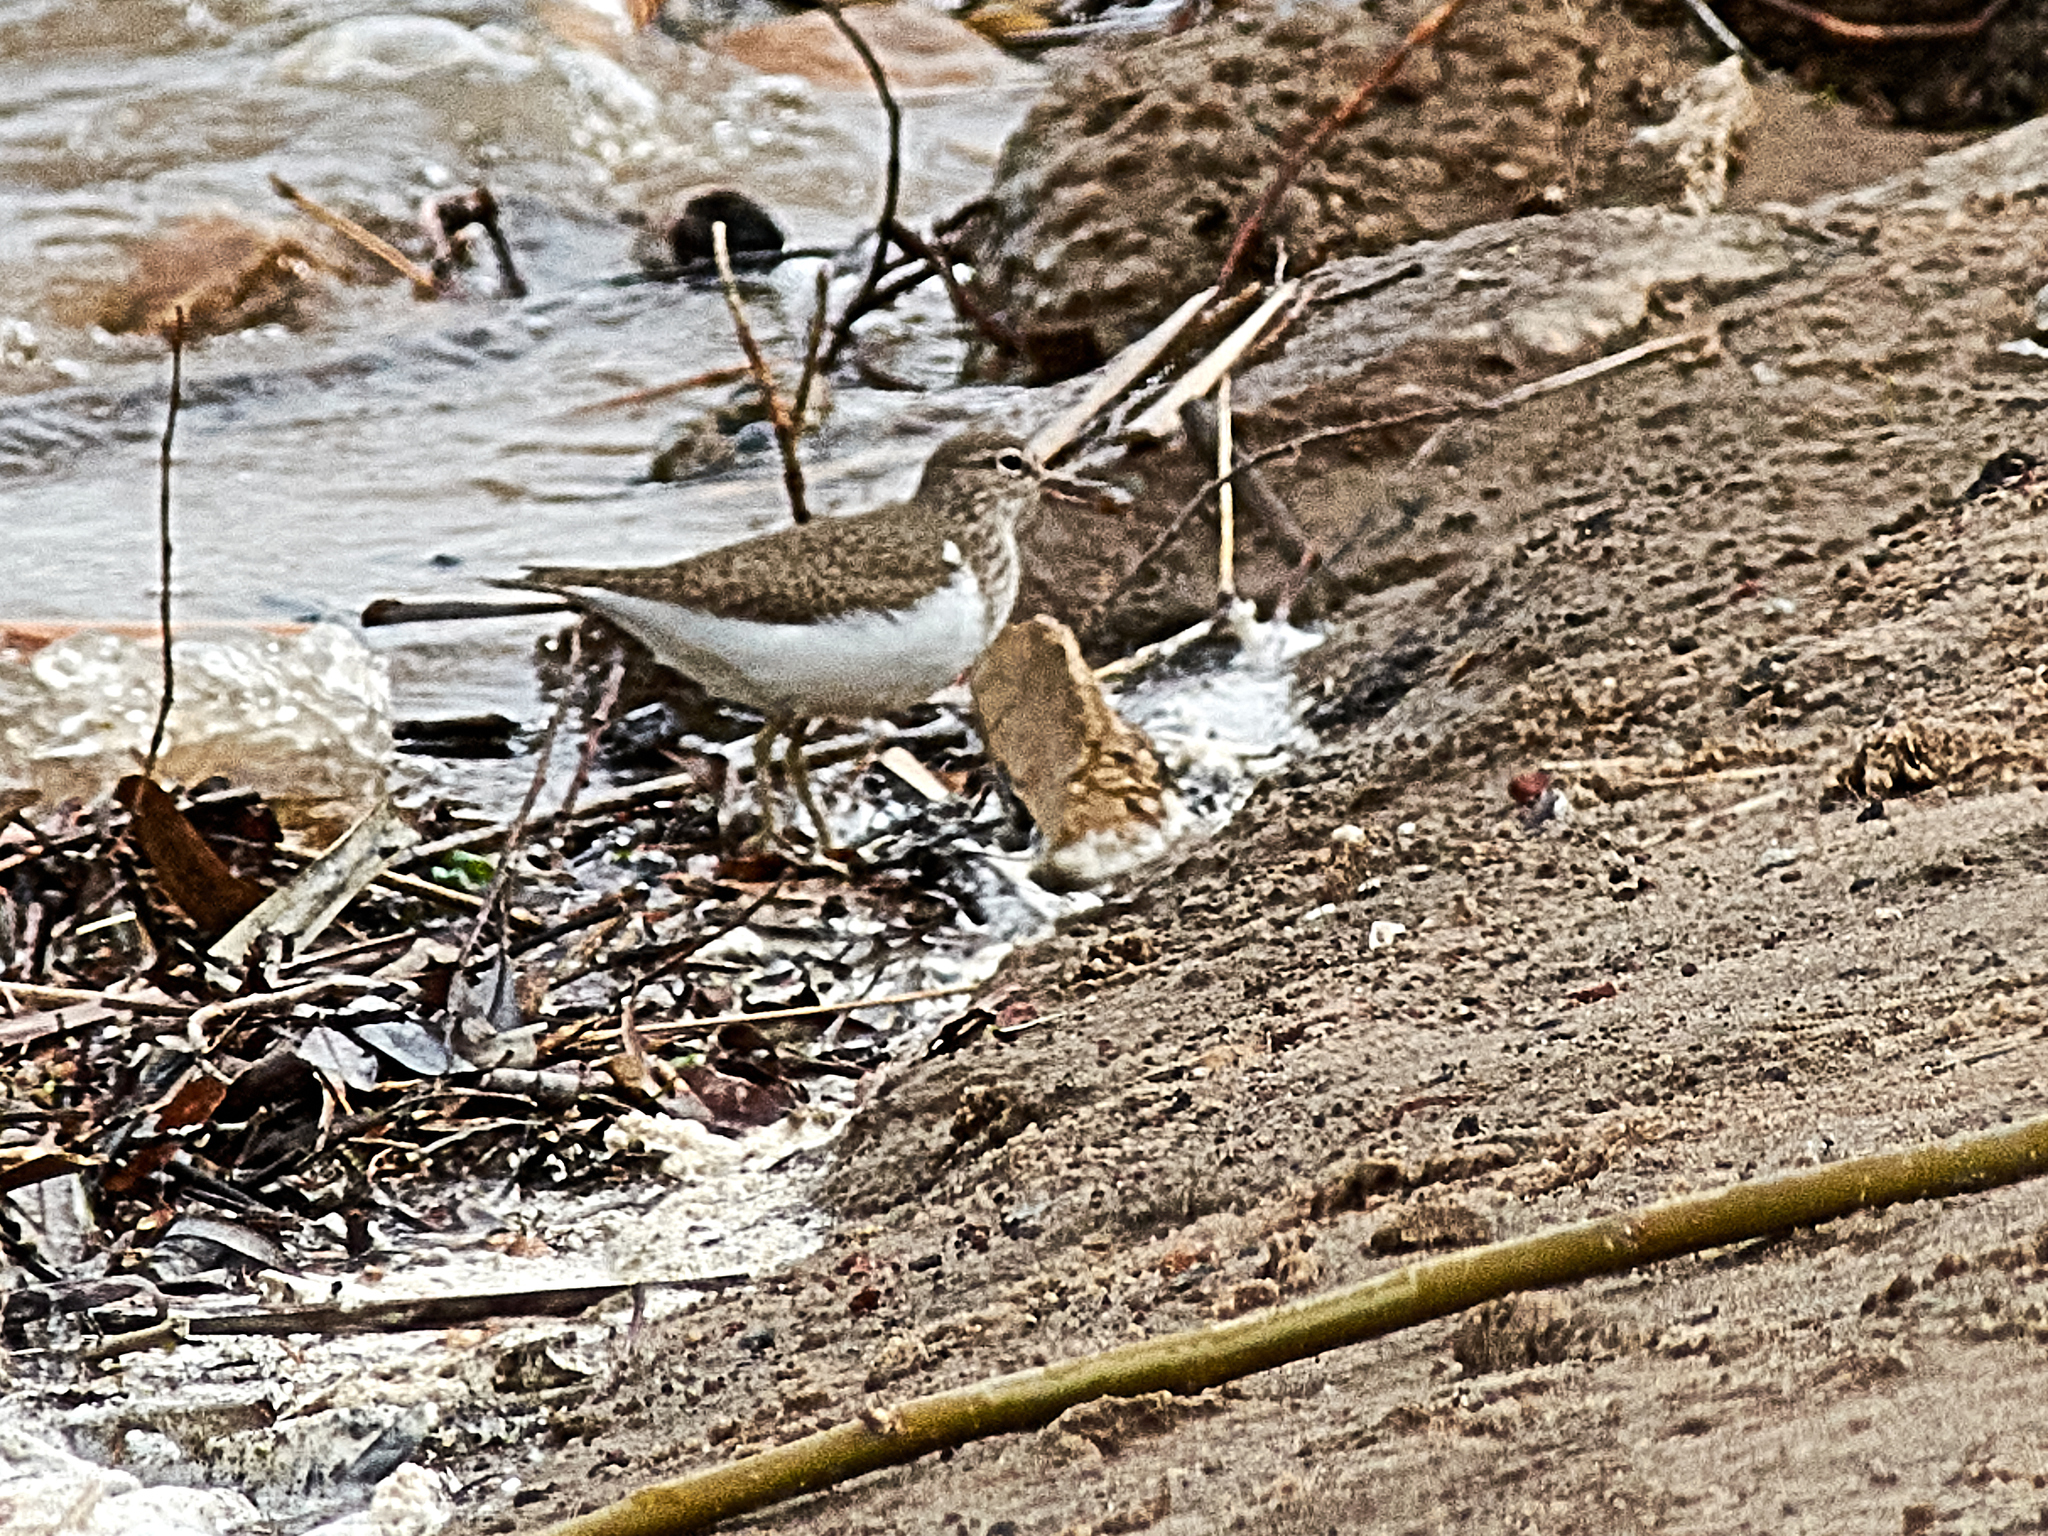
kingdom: Animalia
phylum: Chordata
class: Aves
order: Charadriiformes
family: Scolopacidae
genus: Actitis
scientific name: Actitis hypoleucos
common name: Common sandpiper
